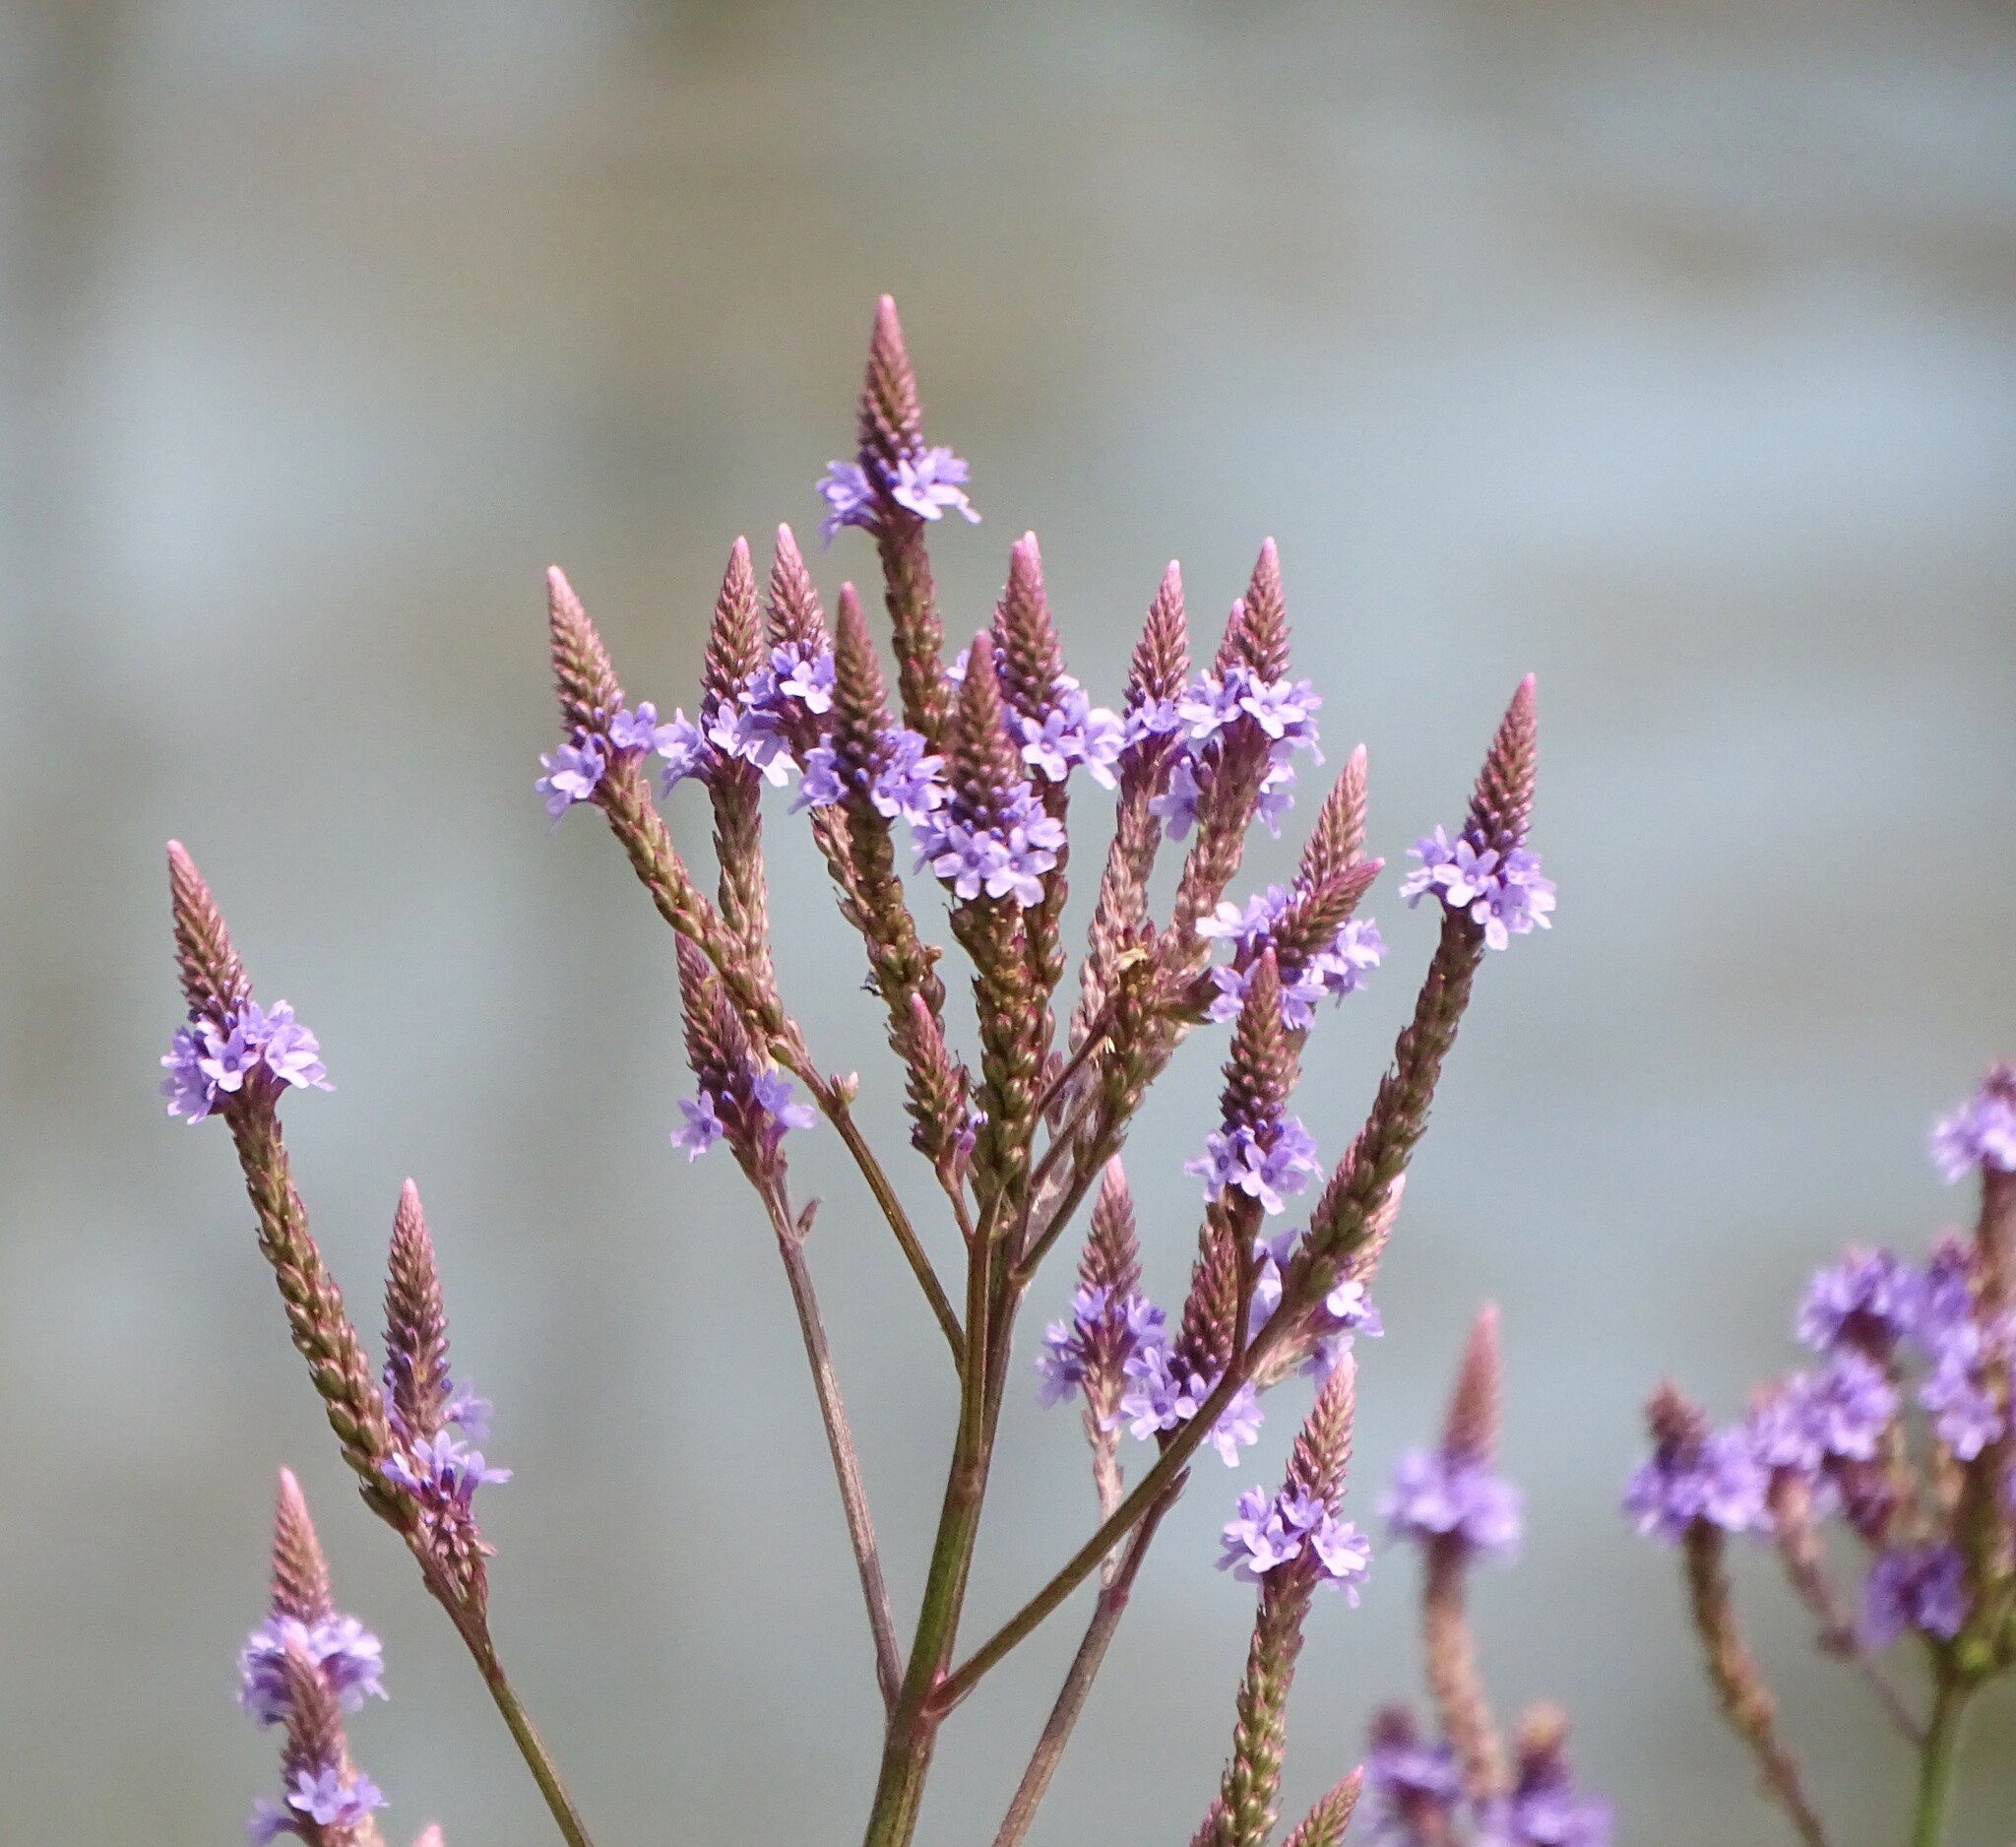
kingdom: Plantae
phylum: Tracheophyta
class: Magnoliopsida
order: Lamiales
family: Verbenaceae
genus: Verbena
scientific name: Verbena hastata
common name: American blue vervain
